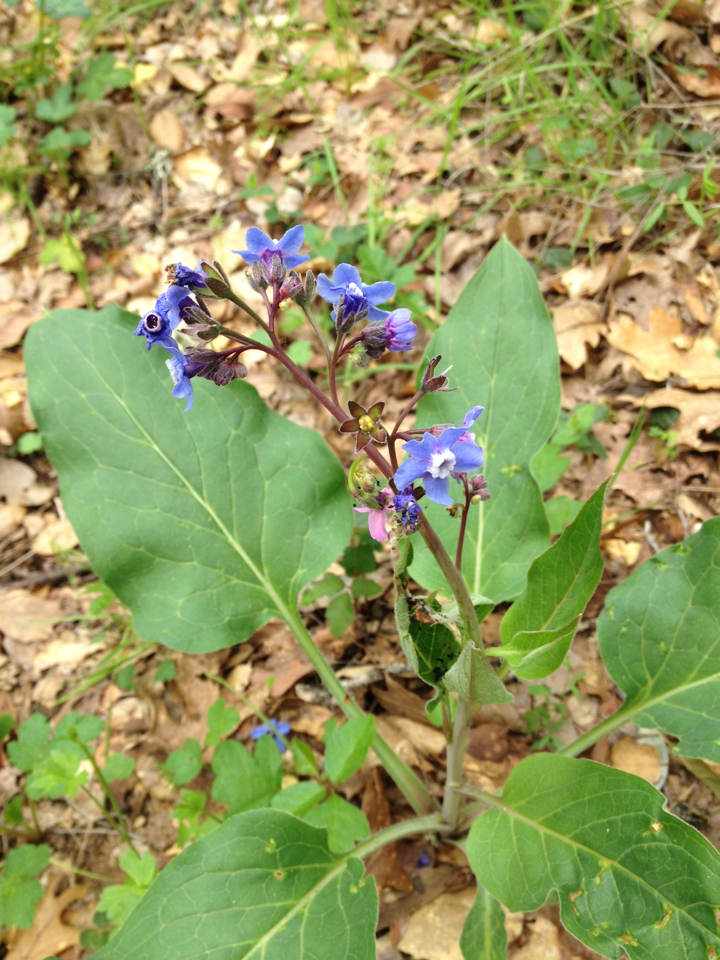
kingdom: Plantae
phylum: Tracheophyta
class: Magnoliopsida
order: Boraginales
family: Boraginaceae
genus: Adelinia
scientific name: Adelinia grande
